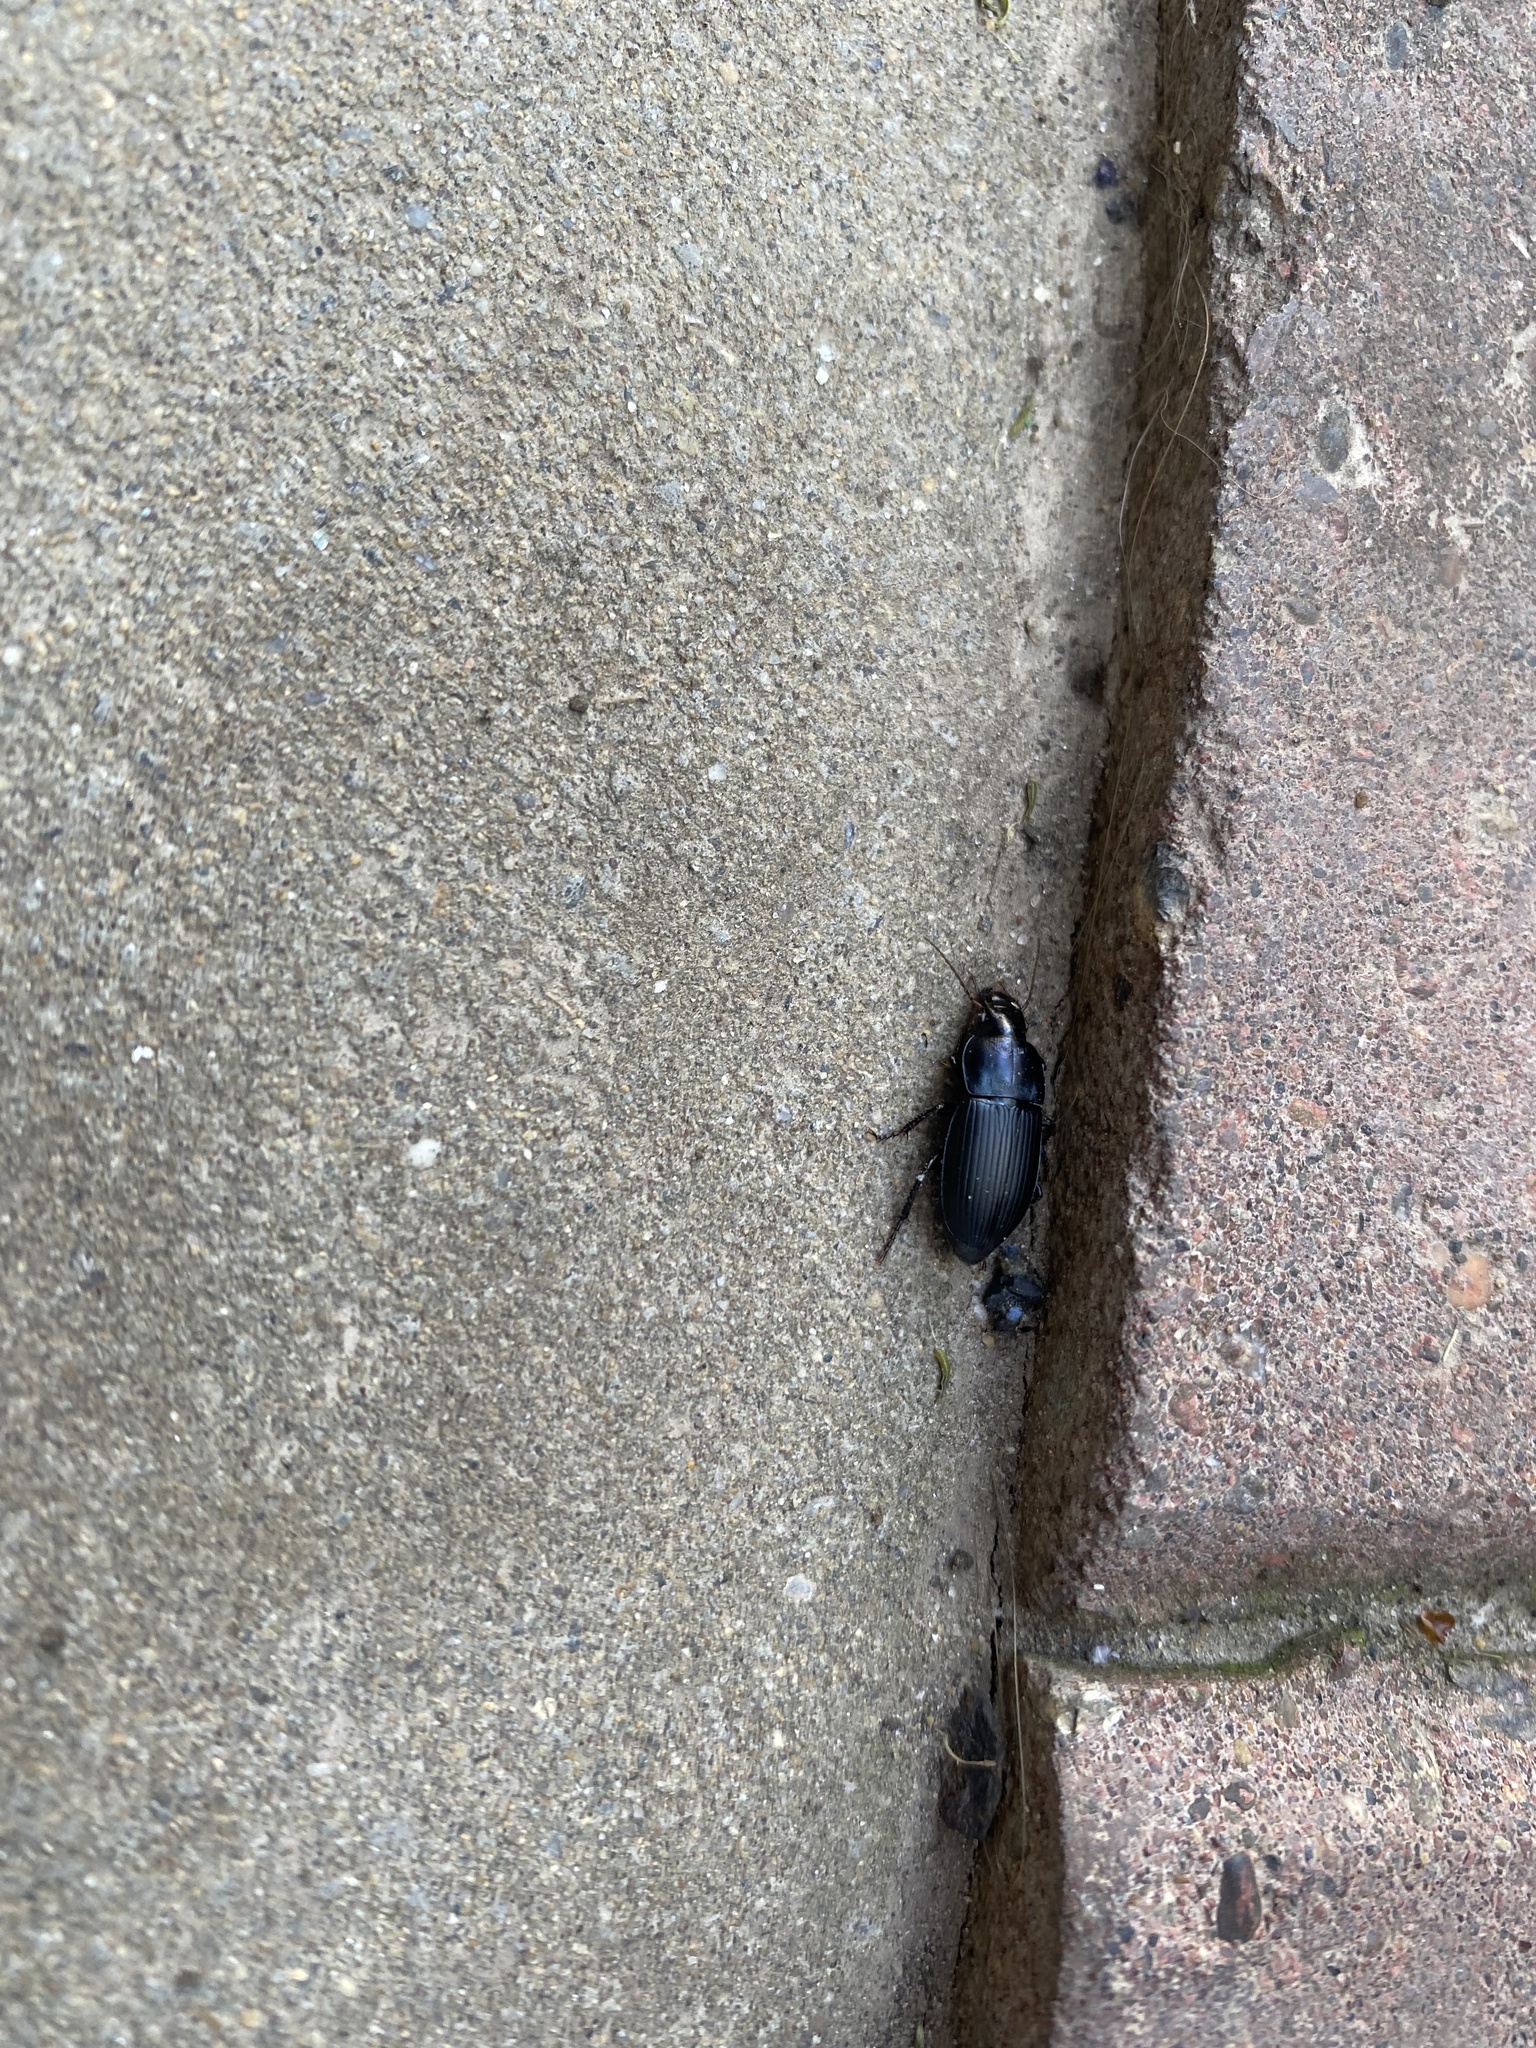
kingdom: Animalia
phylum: Arthropoda
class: Insecta
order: Coleoptera
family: Carabidae
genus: Harpalus
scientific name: Harpalus
